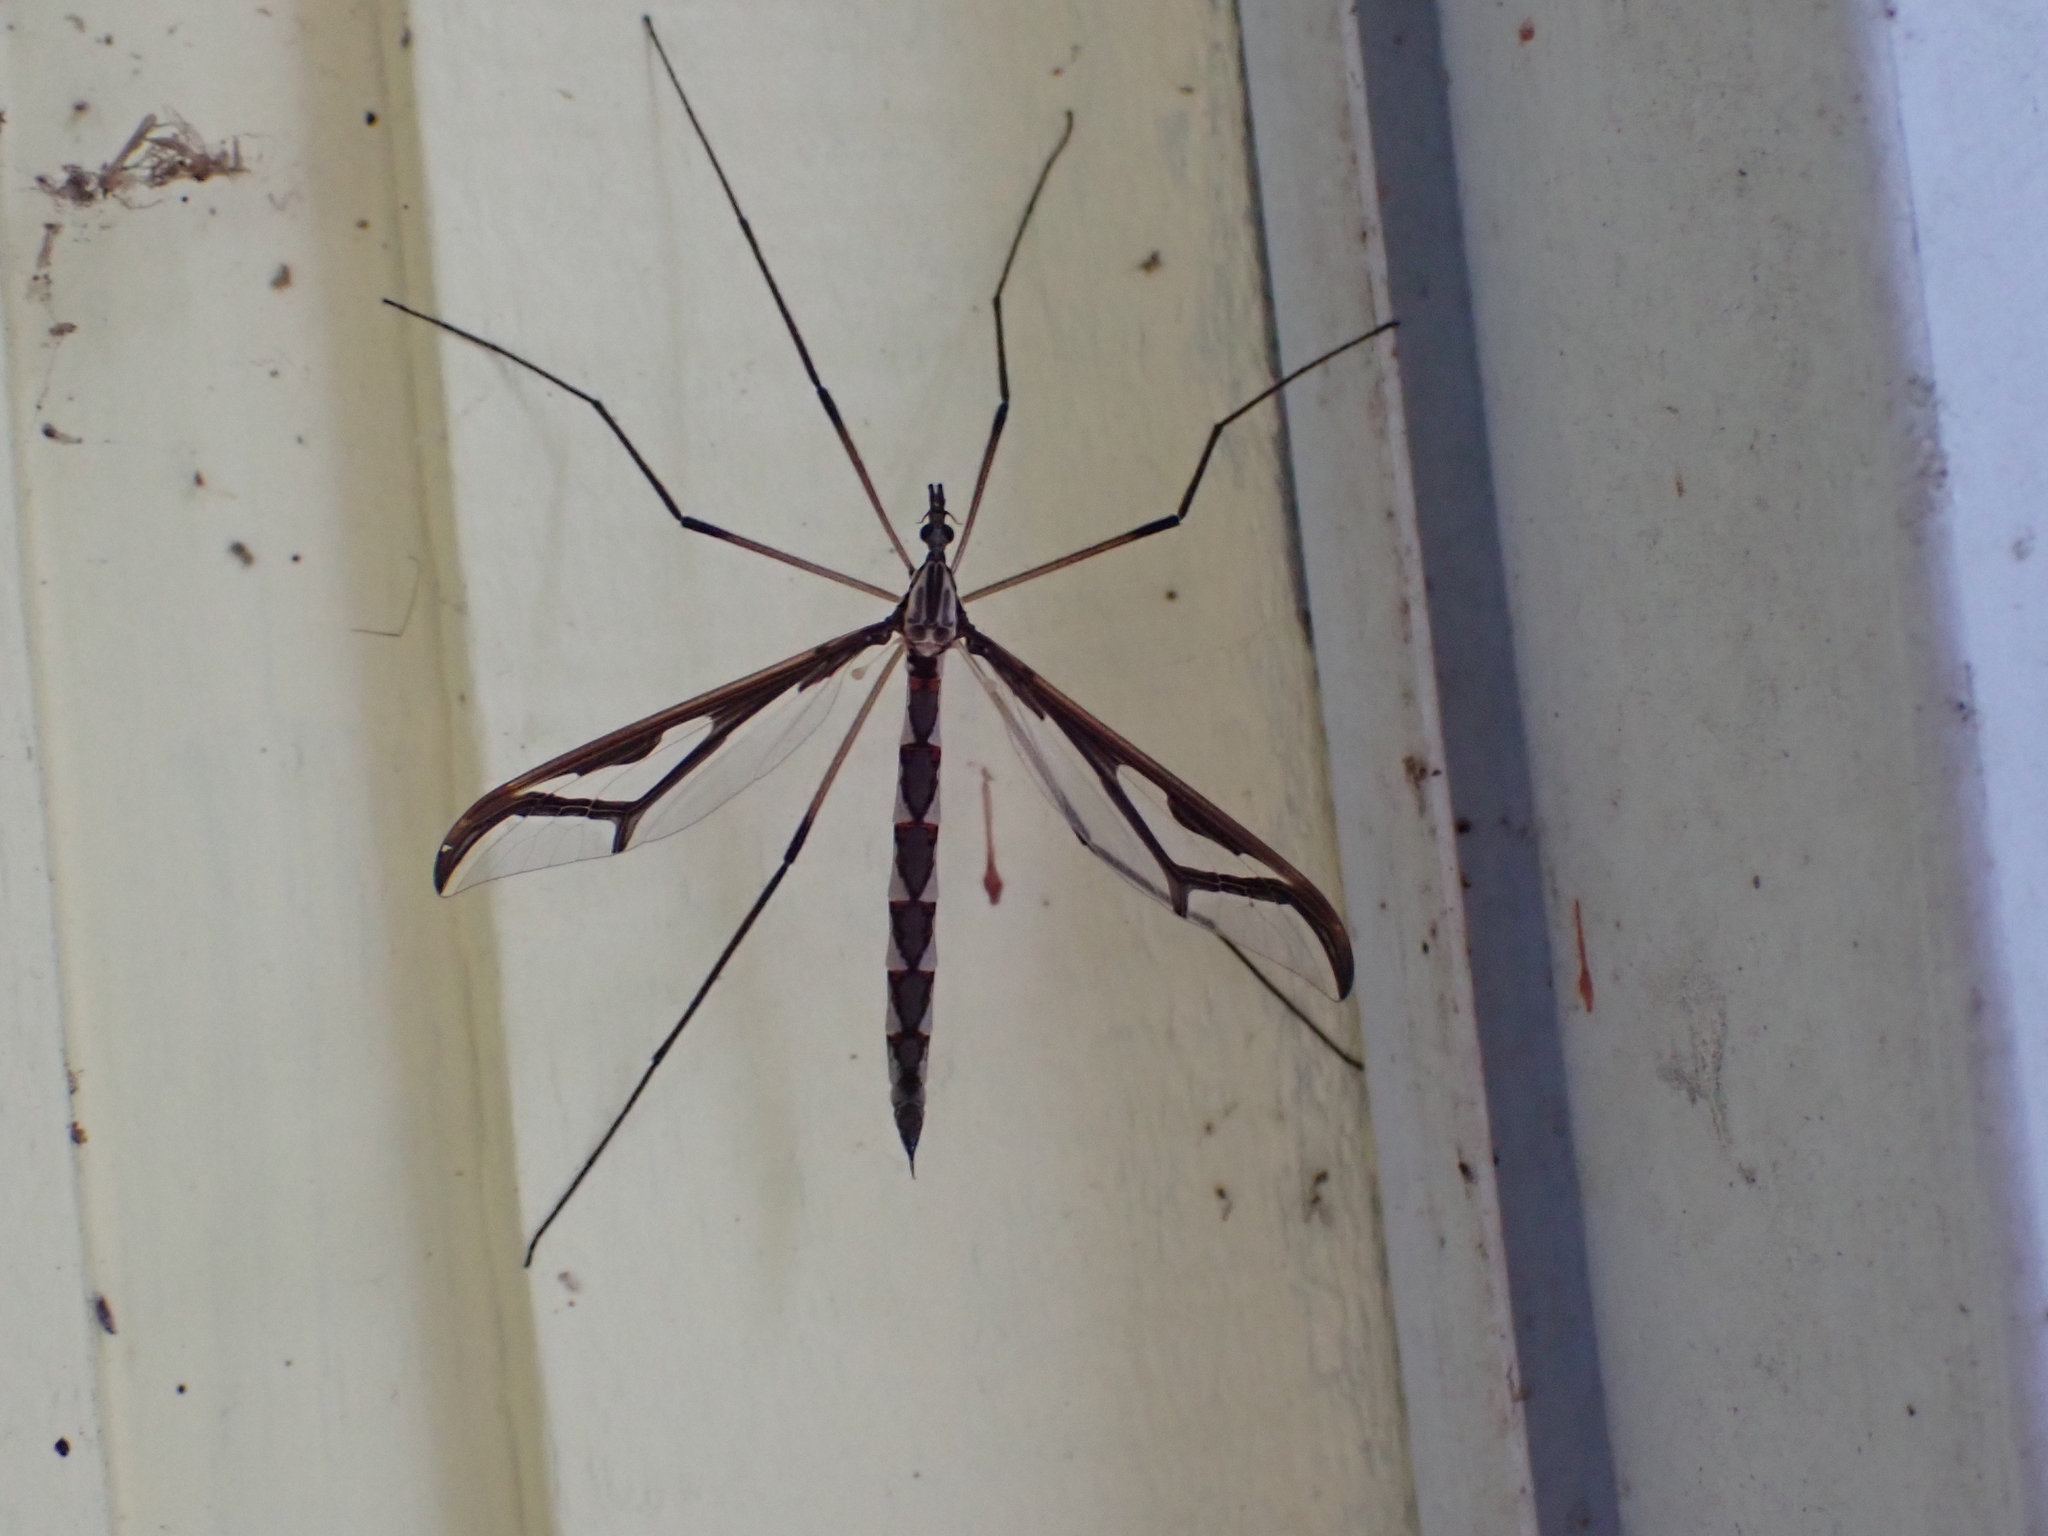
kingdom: Animalia
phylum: Arthropoda
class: Insecta
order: Diptera
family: Pediciidae
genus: Pedicia
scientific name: Pedicia albivitta
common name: Giant eastern crane fly
